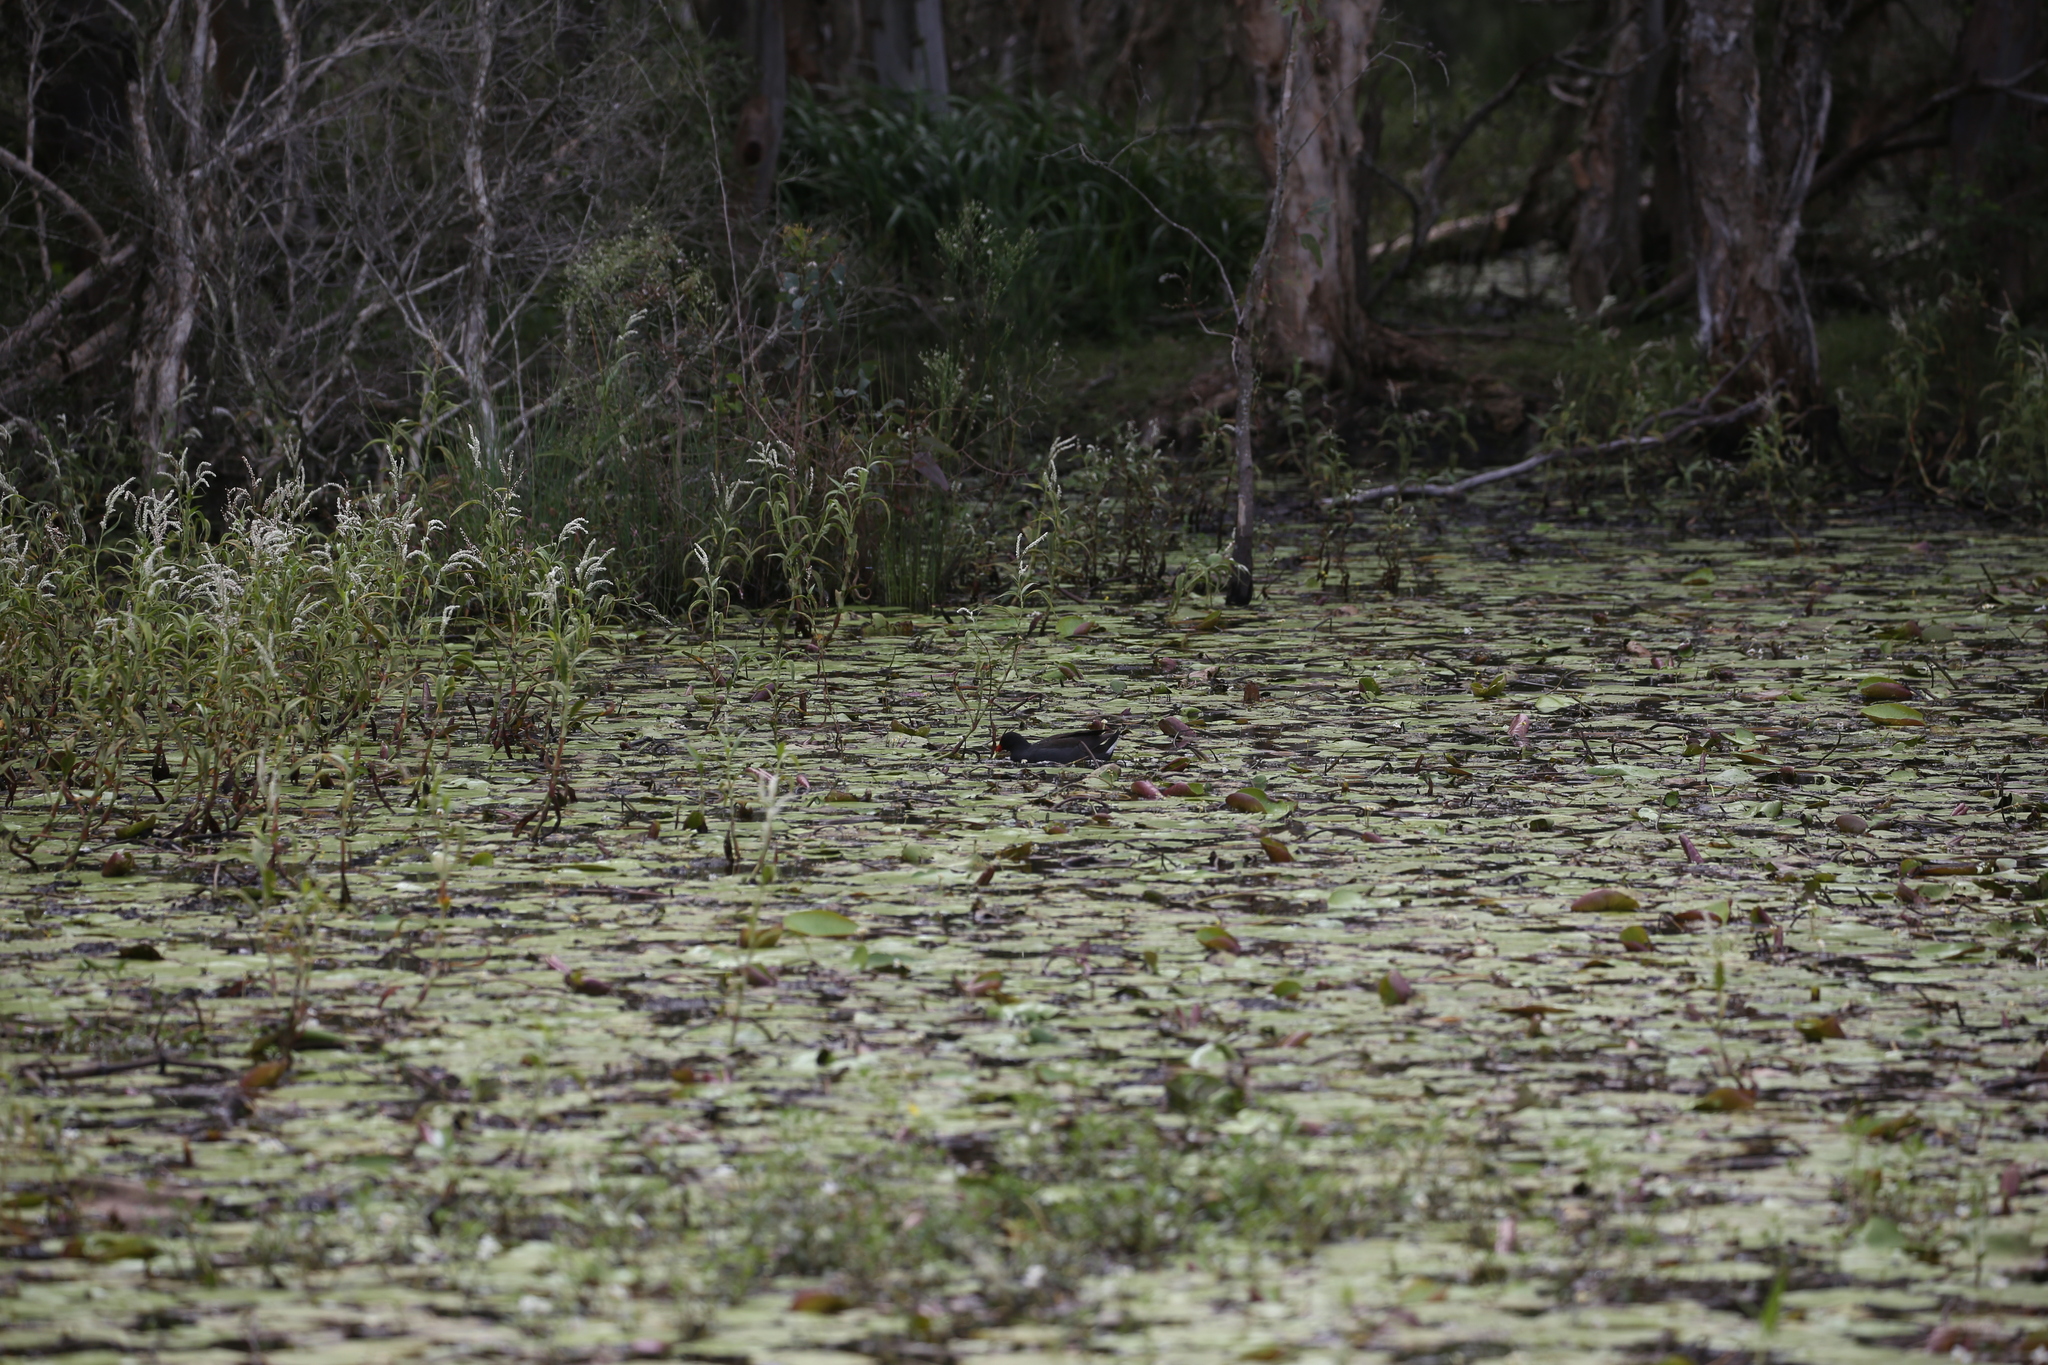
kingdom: Animalia
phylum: Chordata
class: Aves
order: Gruiformes
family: Rallidae
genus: Gallinula
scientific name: Gallinula tenebrosa
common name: Dusky moorhen
